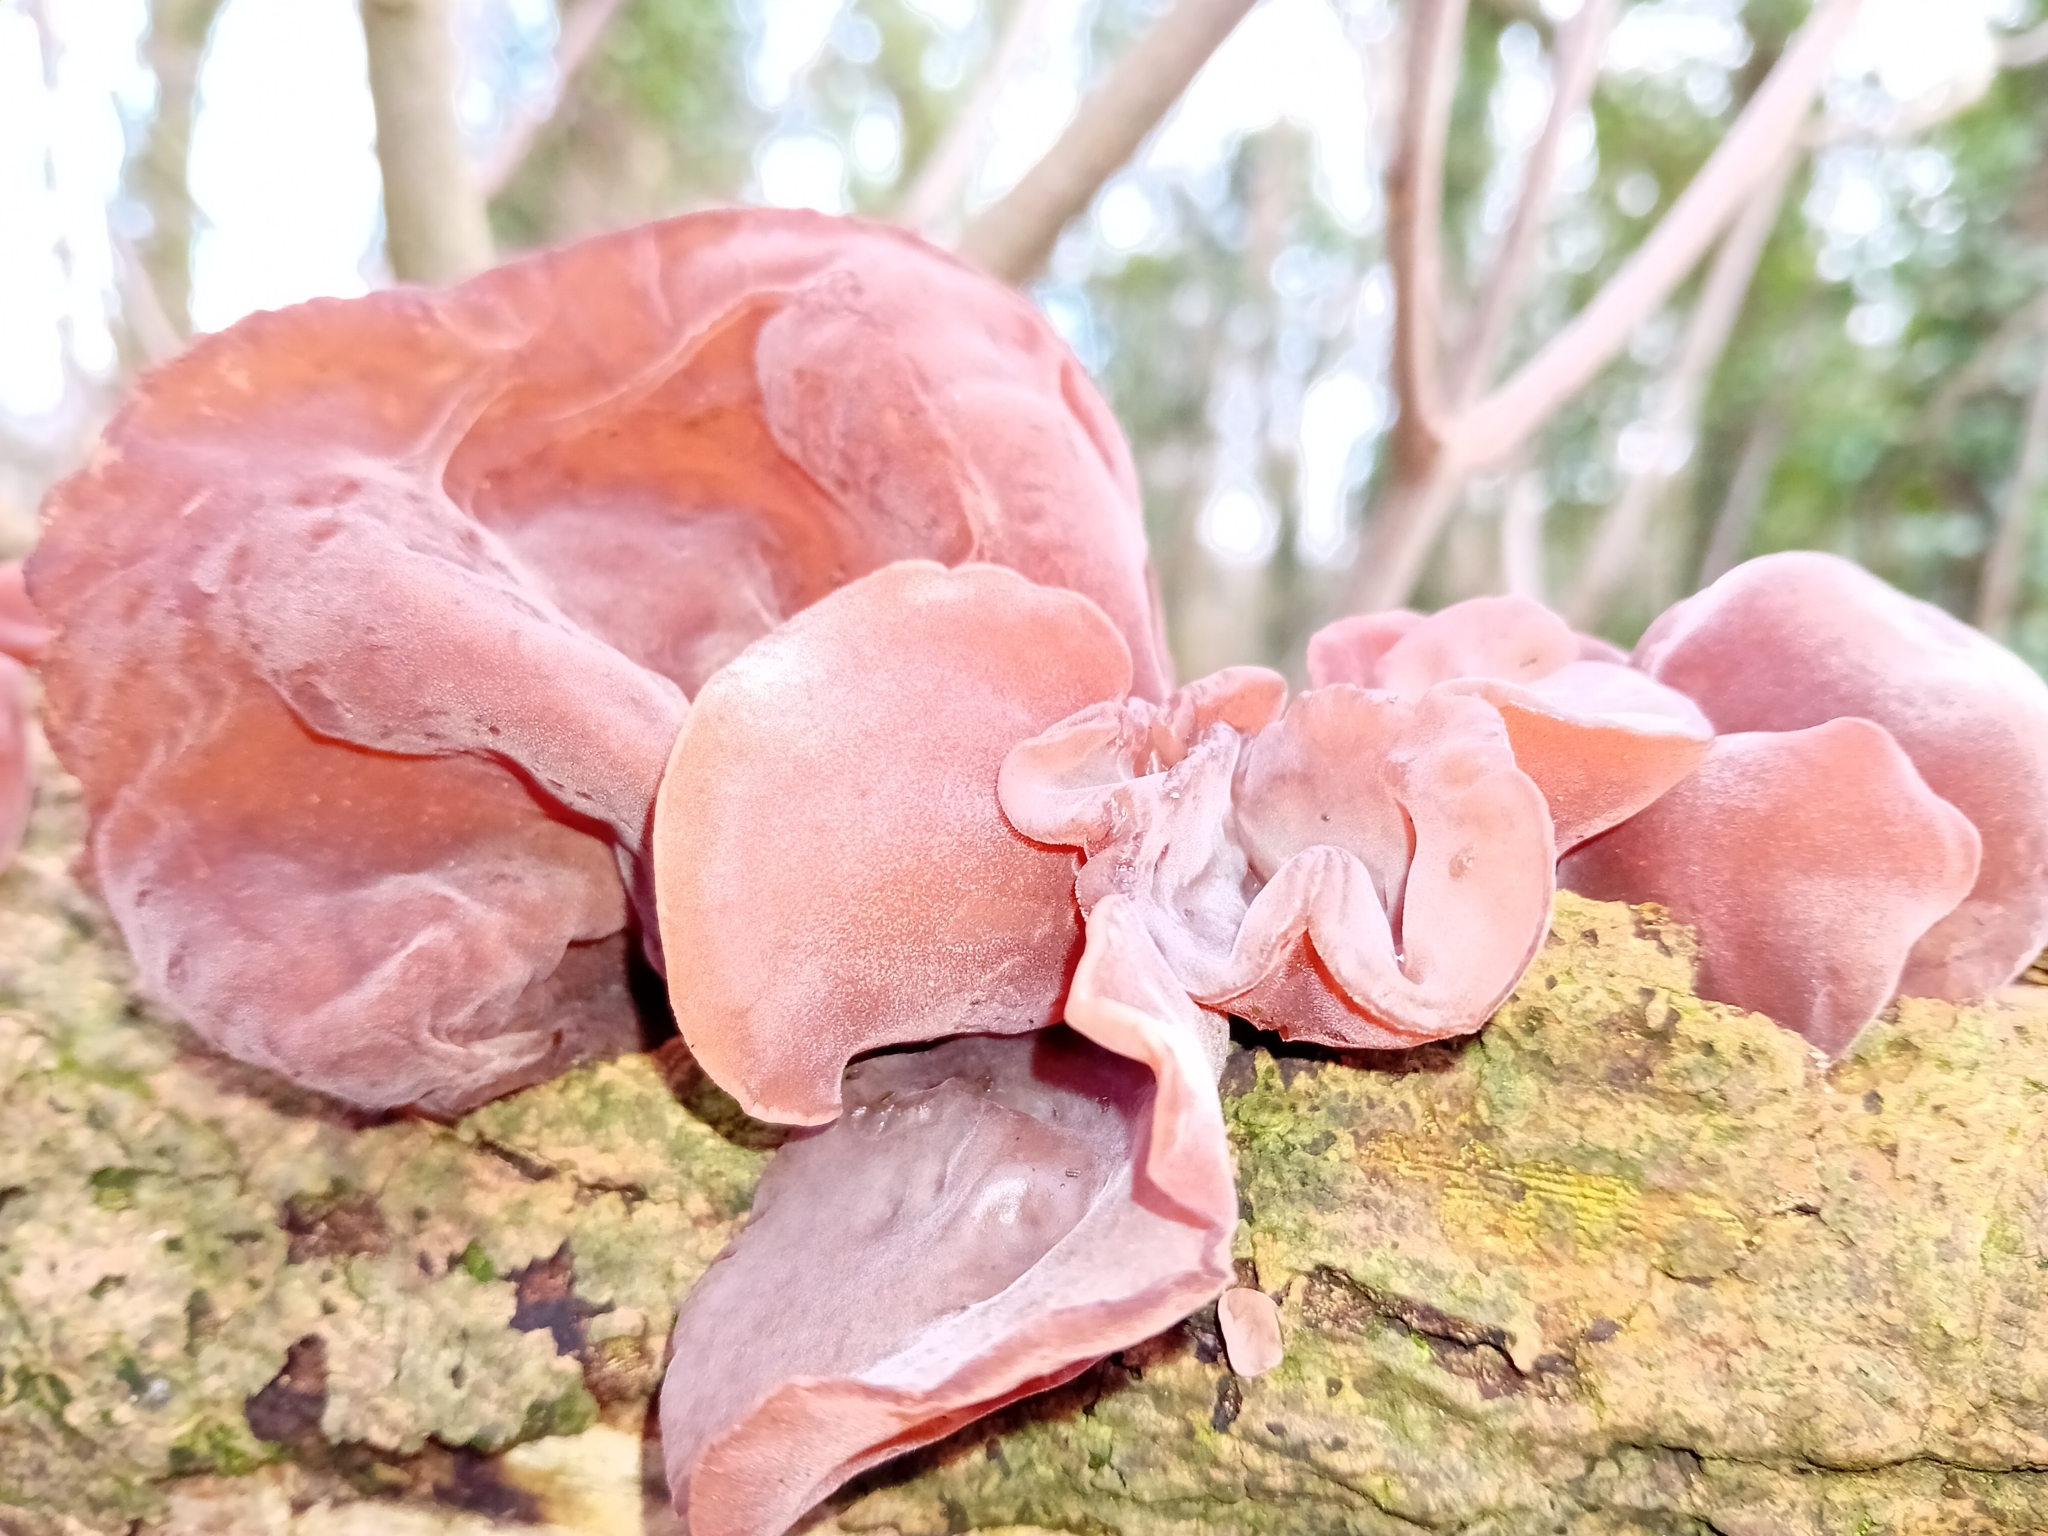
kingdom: Fungi
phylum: Basidiomycota
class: Agaricomycetes
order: Auriculariales
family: Auriculariaceae
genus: Auricularia
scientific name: Auricularia auricula-judae
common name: Jelly ear
